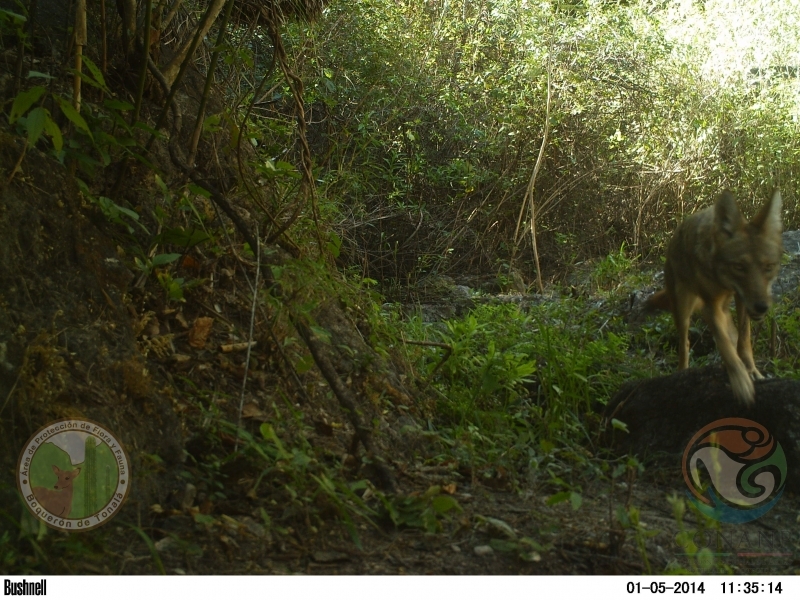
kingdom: Animalia
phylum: Chordata
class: Mammalia
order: Carnivora
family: Canidae
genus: Canis
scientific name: Canis latrans
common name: Coyote
